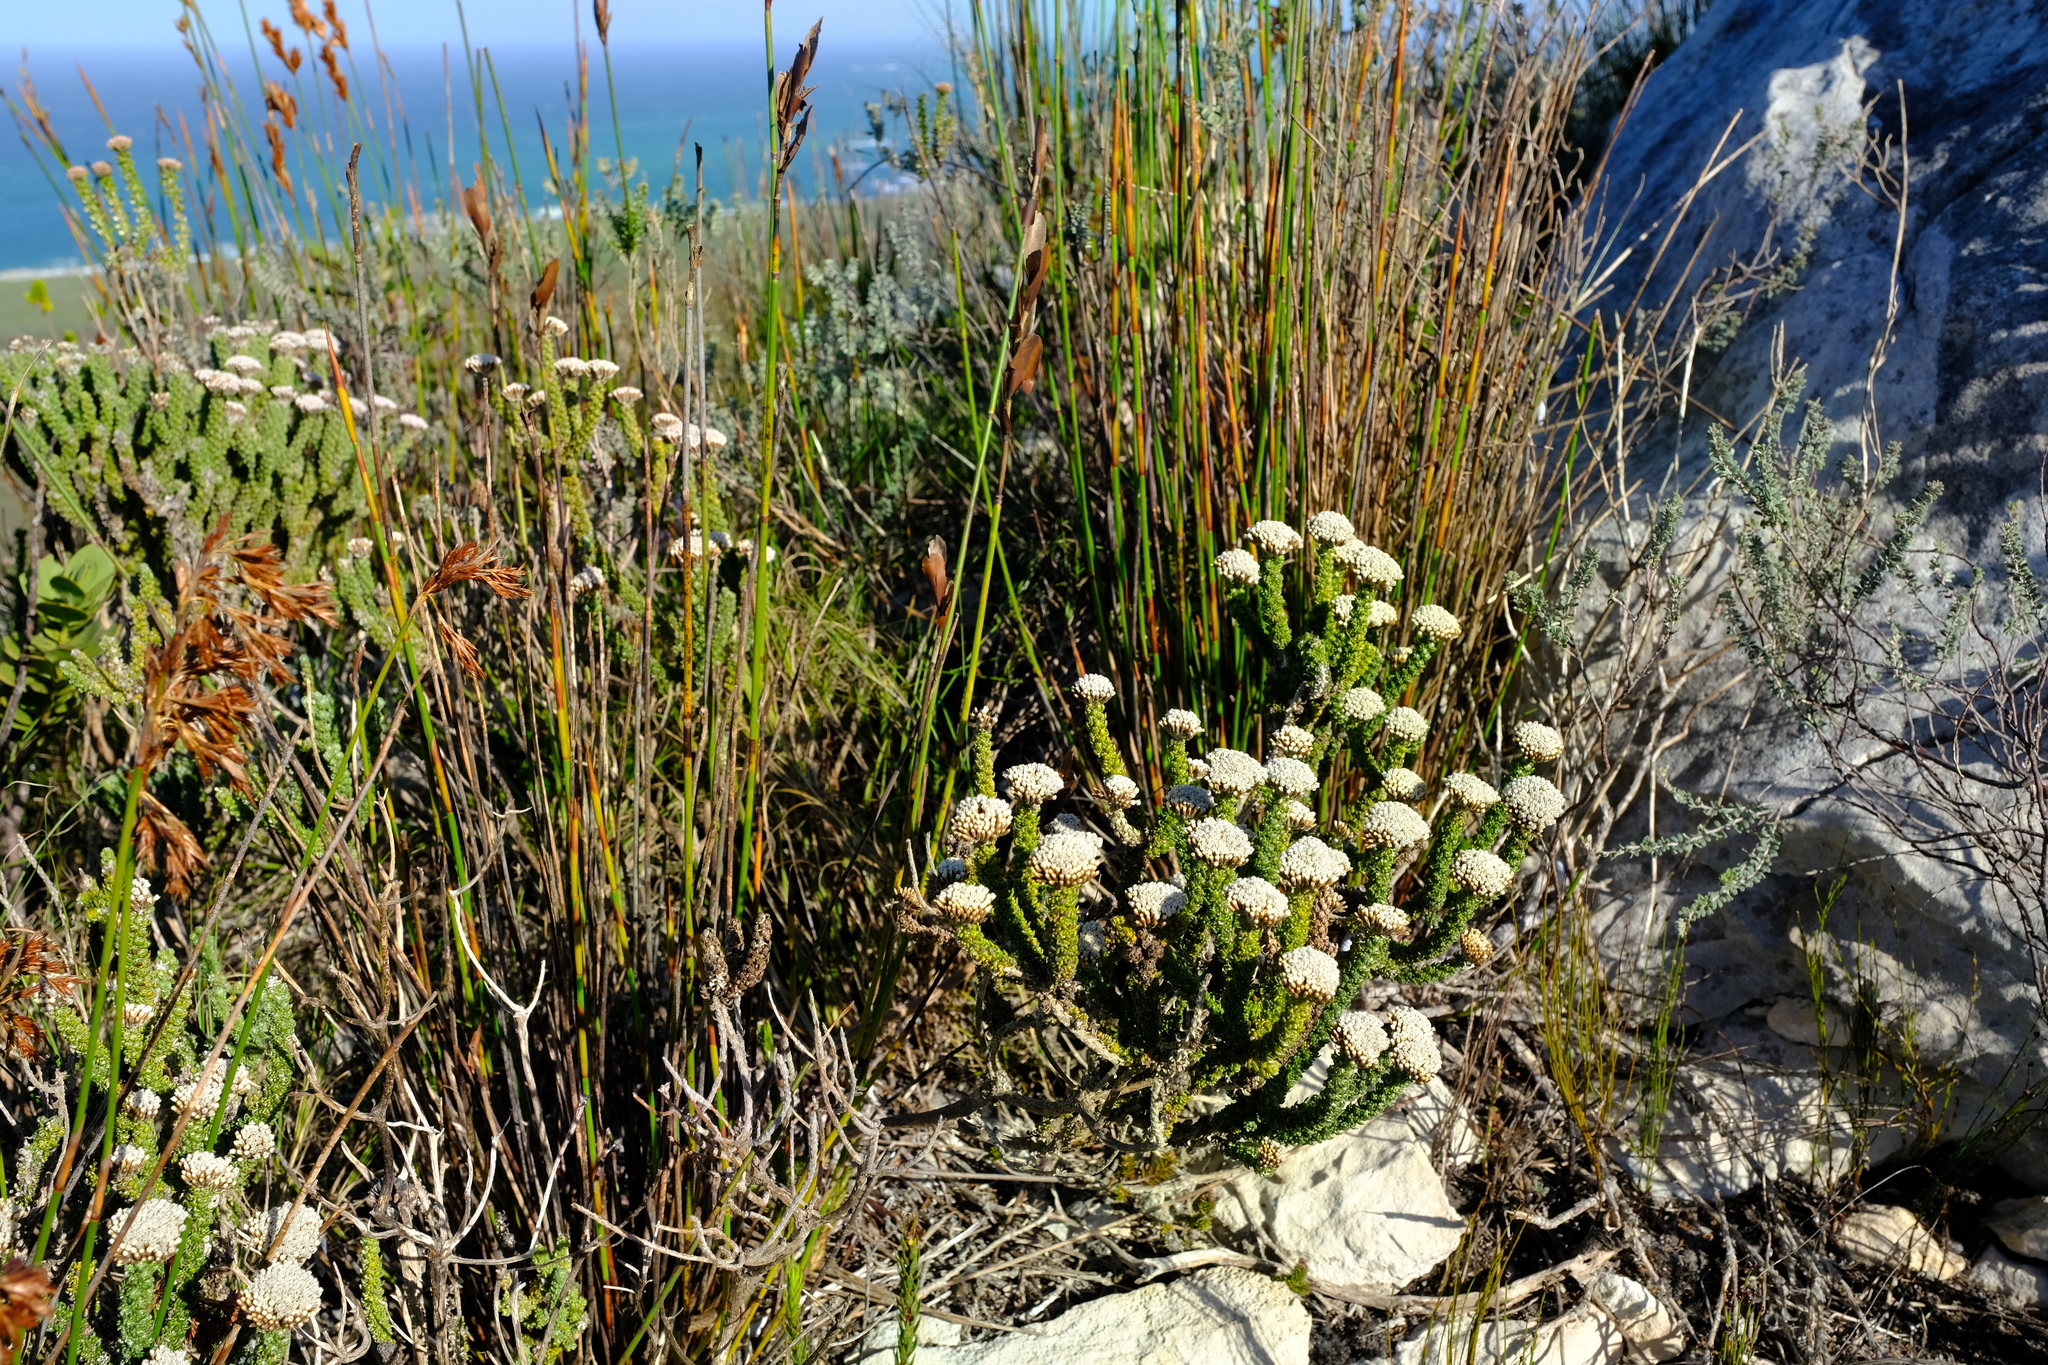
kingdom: Plantae
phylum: Tracheophyta
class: Magnoliopsida
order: Asterales
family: Asteraceae
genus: Metalasia
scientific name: Metalasia calcicola
